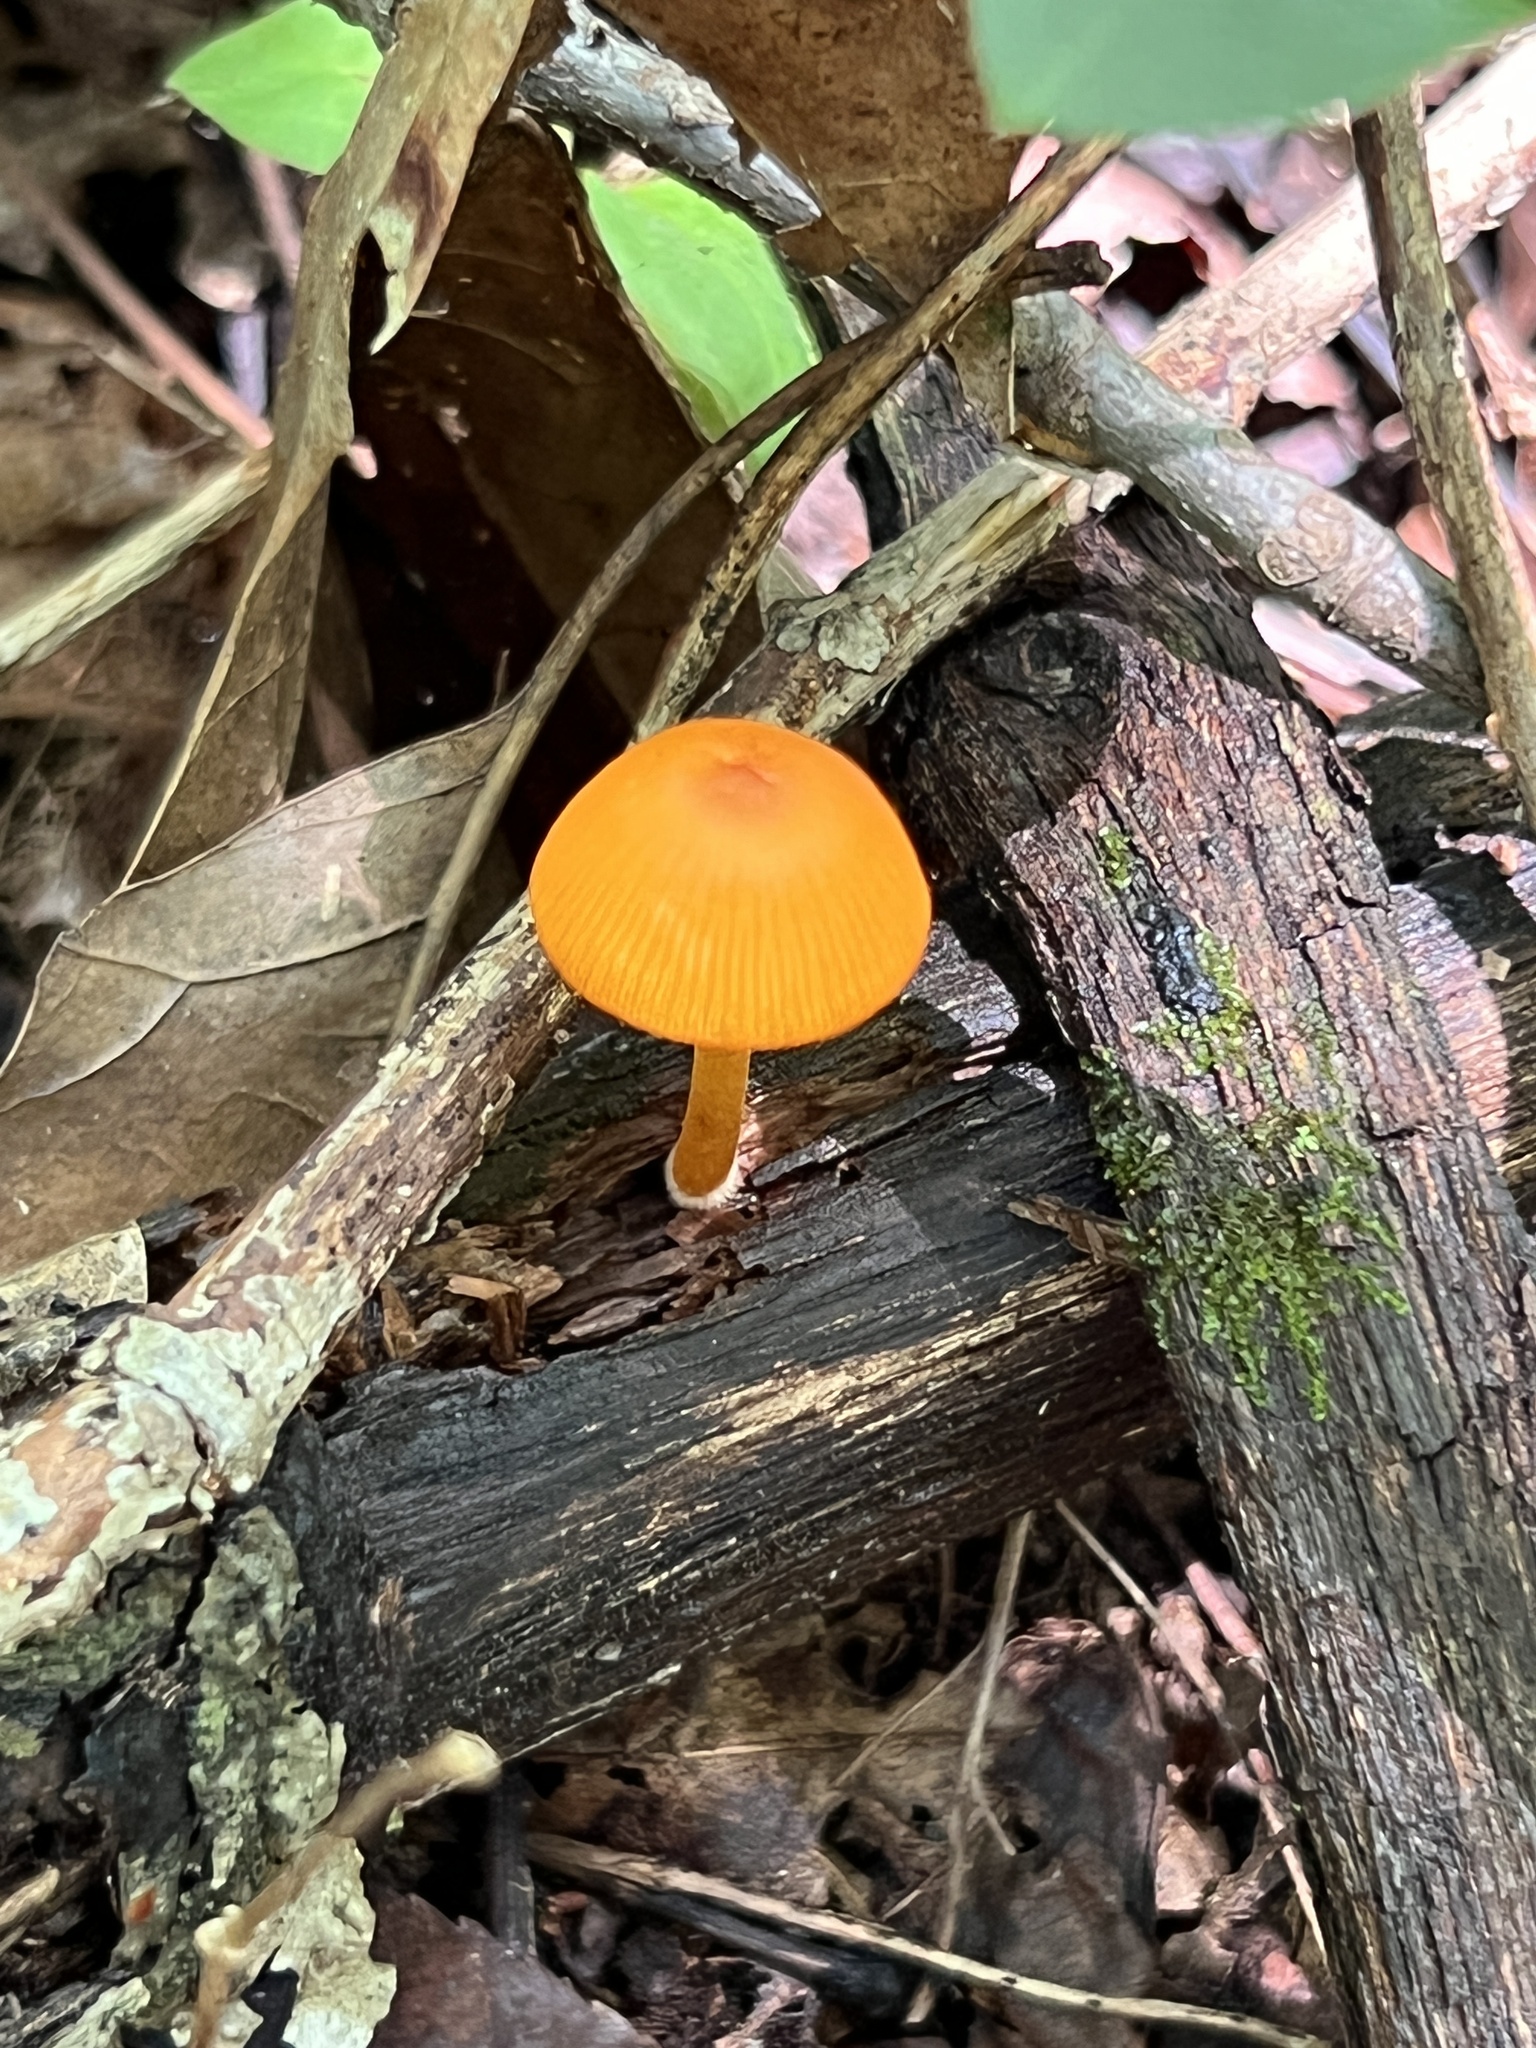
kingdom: Fungi
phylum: Basidiomycota
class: Agaricomycetes
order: Agaricales
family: Mycenaceae
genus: Mycena
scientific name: Mycena leaiana
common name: Orange mycena
